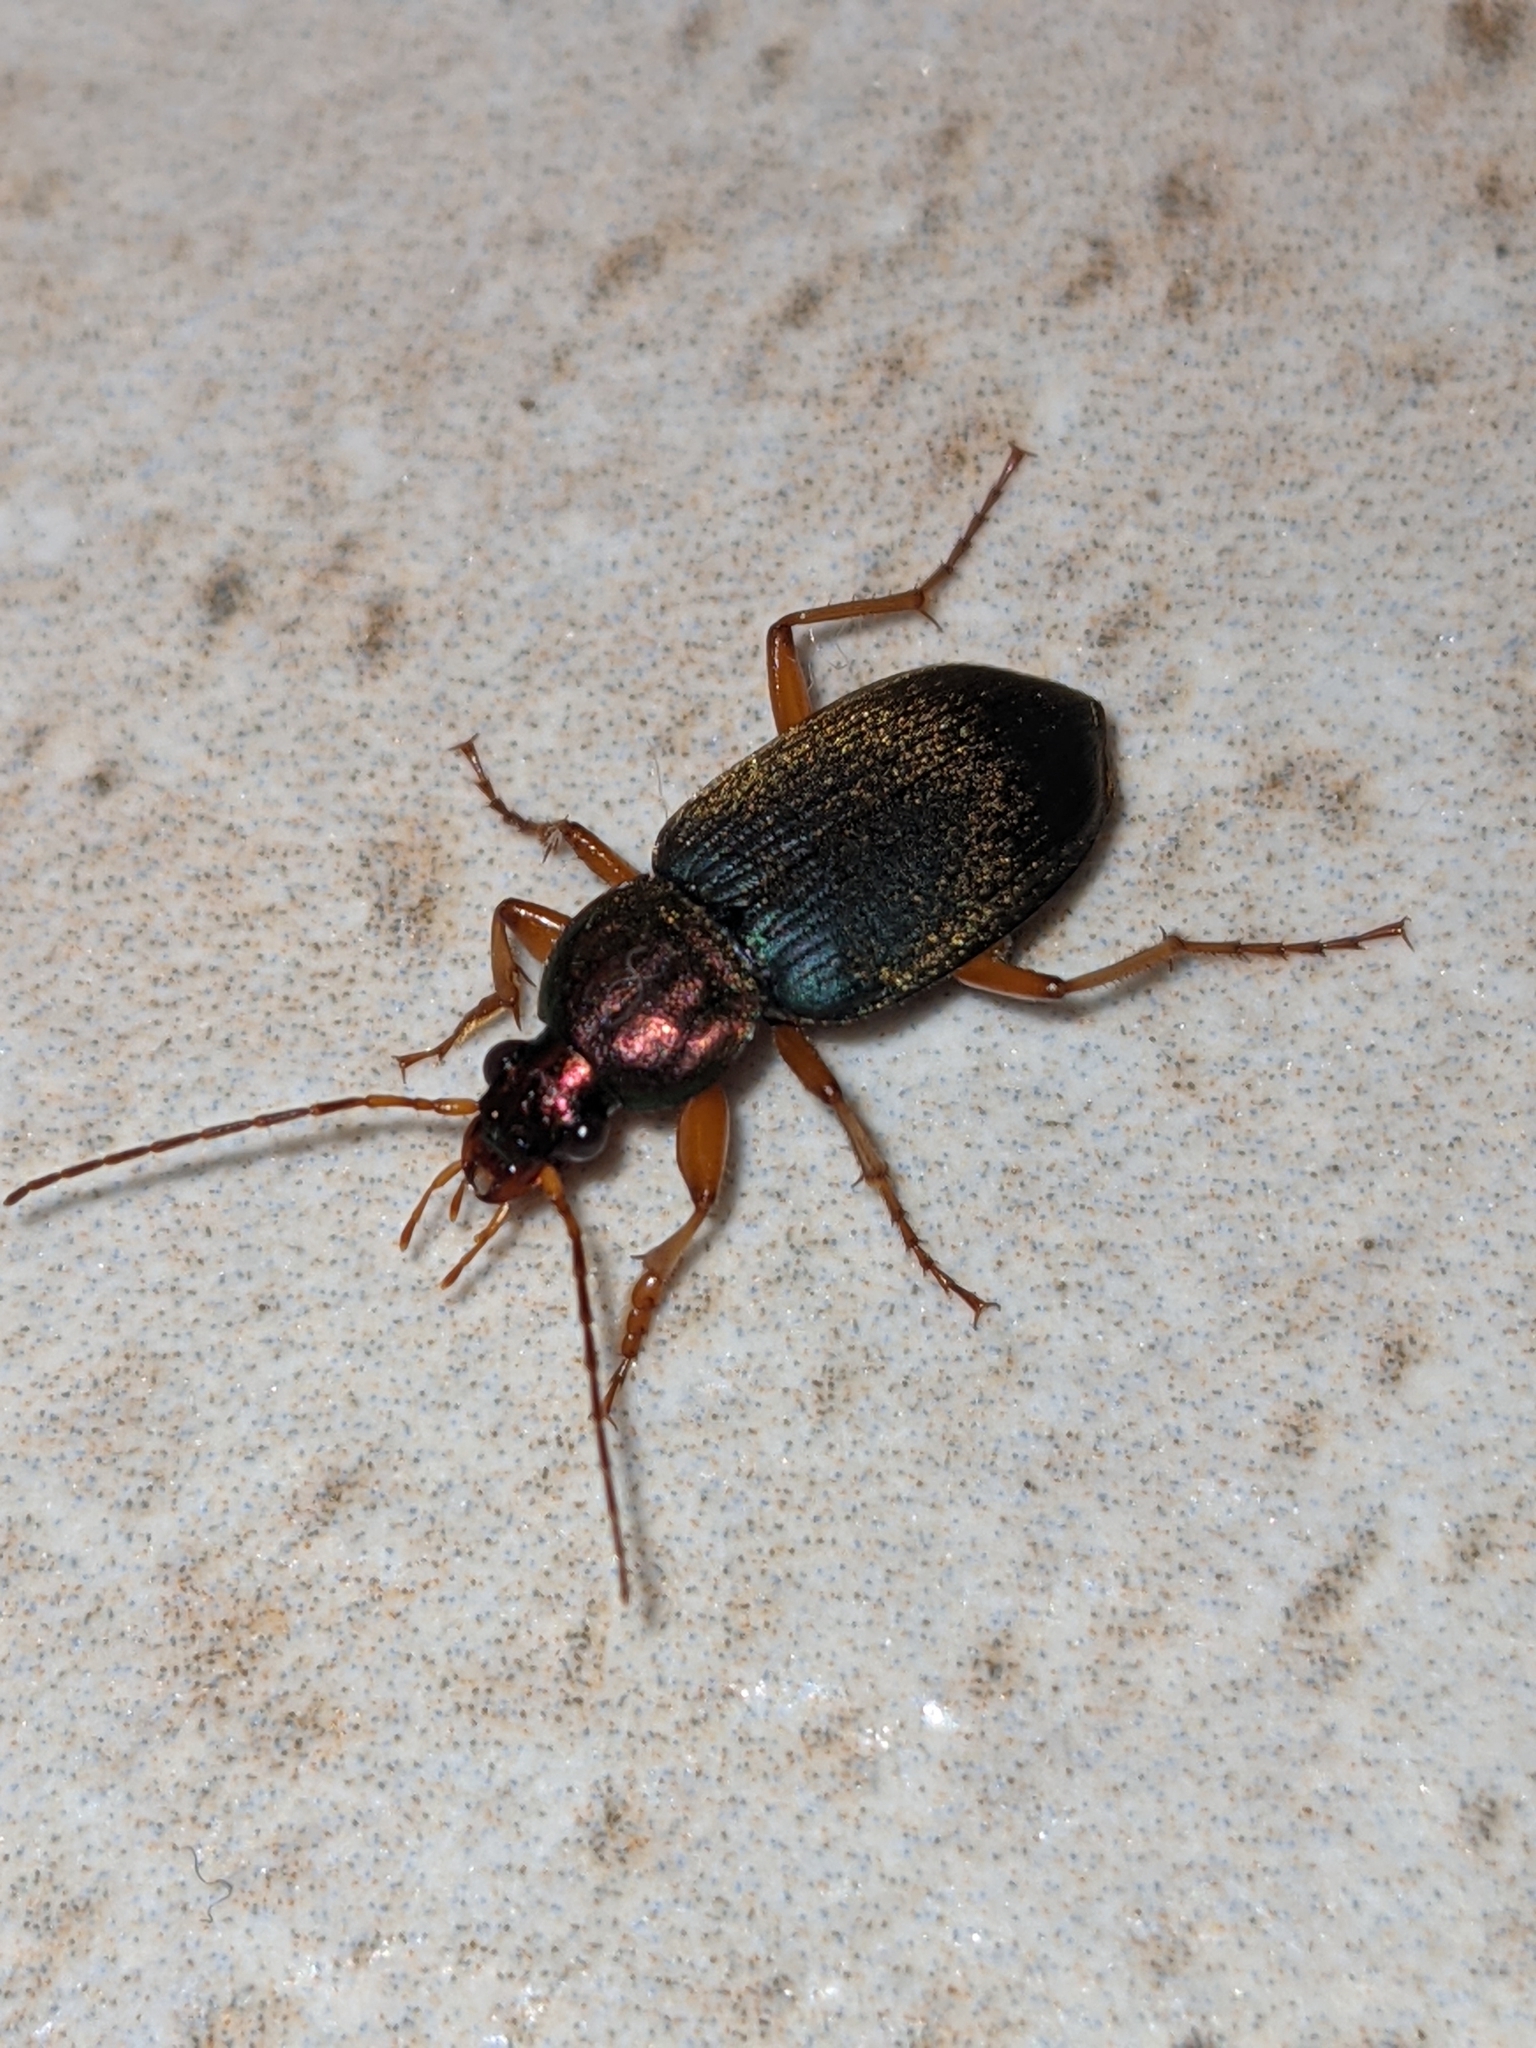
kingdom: Animalia
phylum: Arthropoda
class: Insecta
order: Coleoptera
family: Carabidae
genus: Chlaenius
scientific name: Chlaenius tricolor
